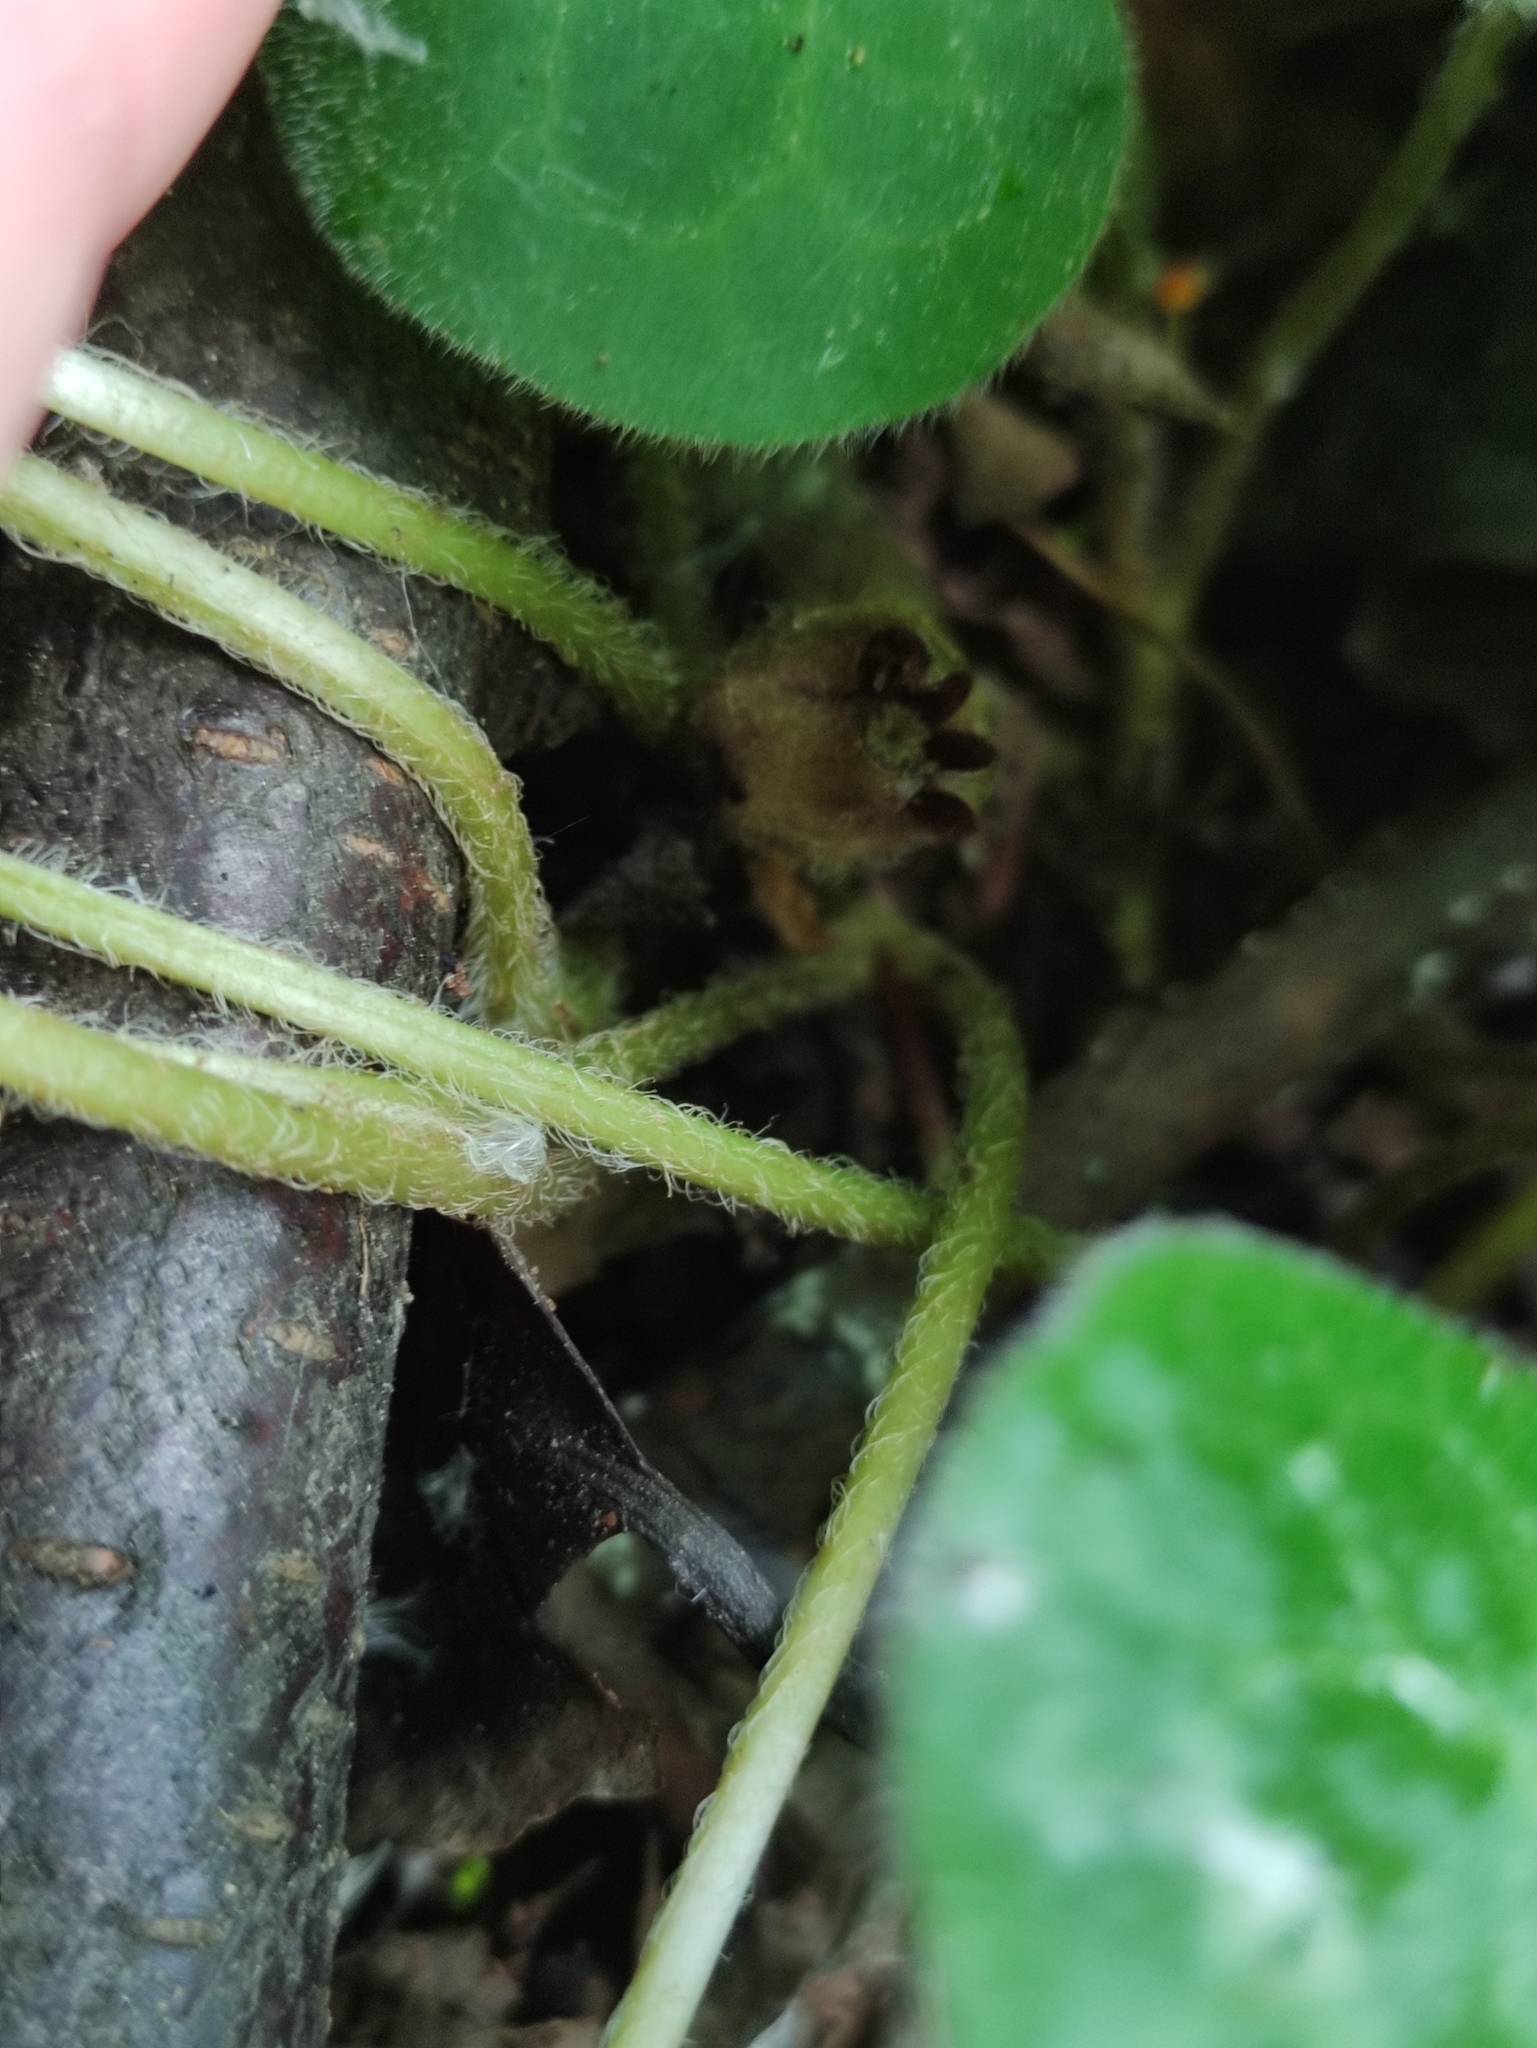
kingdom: Plantae
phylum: Tracheophyta
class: Magnoliopsida
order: Piperales
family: Aristolochiaceae
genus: Asarum
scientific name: Asarum europaeum
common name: Asarabacca
